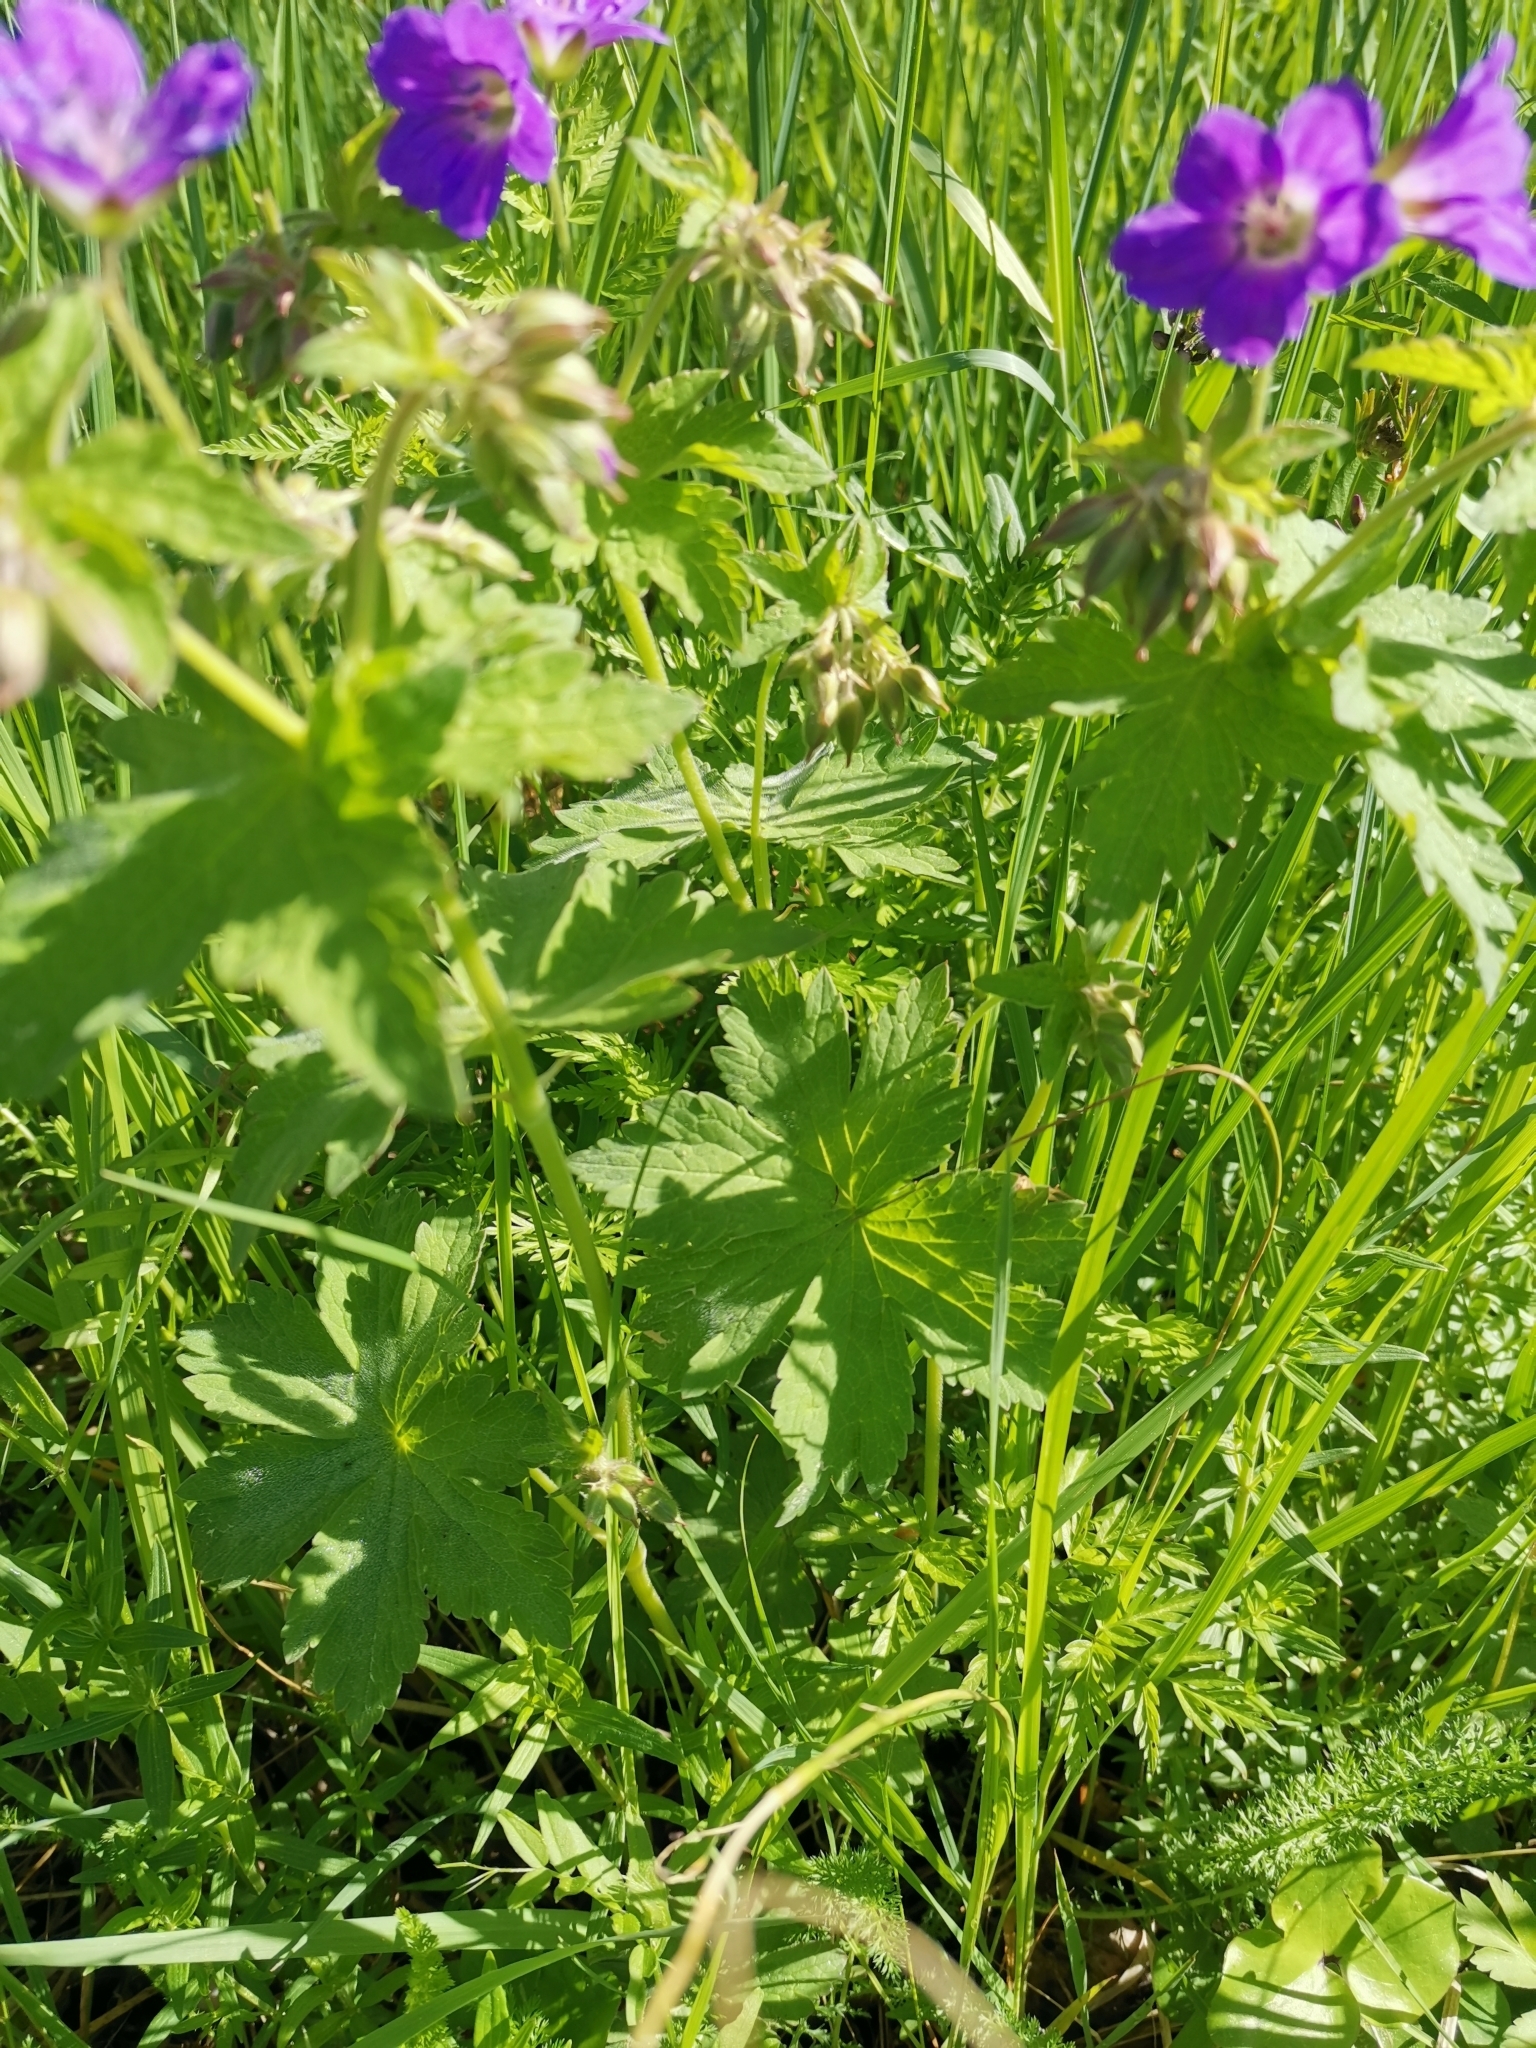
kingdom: Plantae
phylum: Tracheophyta
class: Magnoliopsida
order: Geraniales
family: Geraniaceae
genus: Geranium
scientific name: Geranium sylvaticum
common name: Wood crane's-bill
